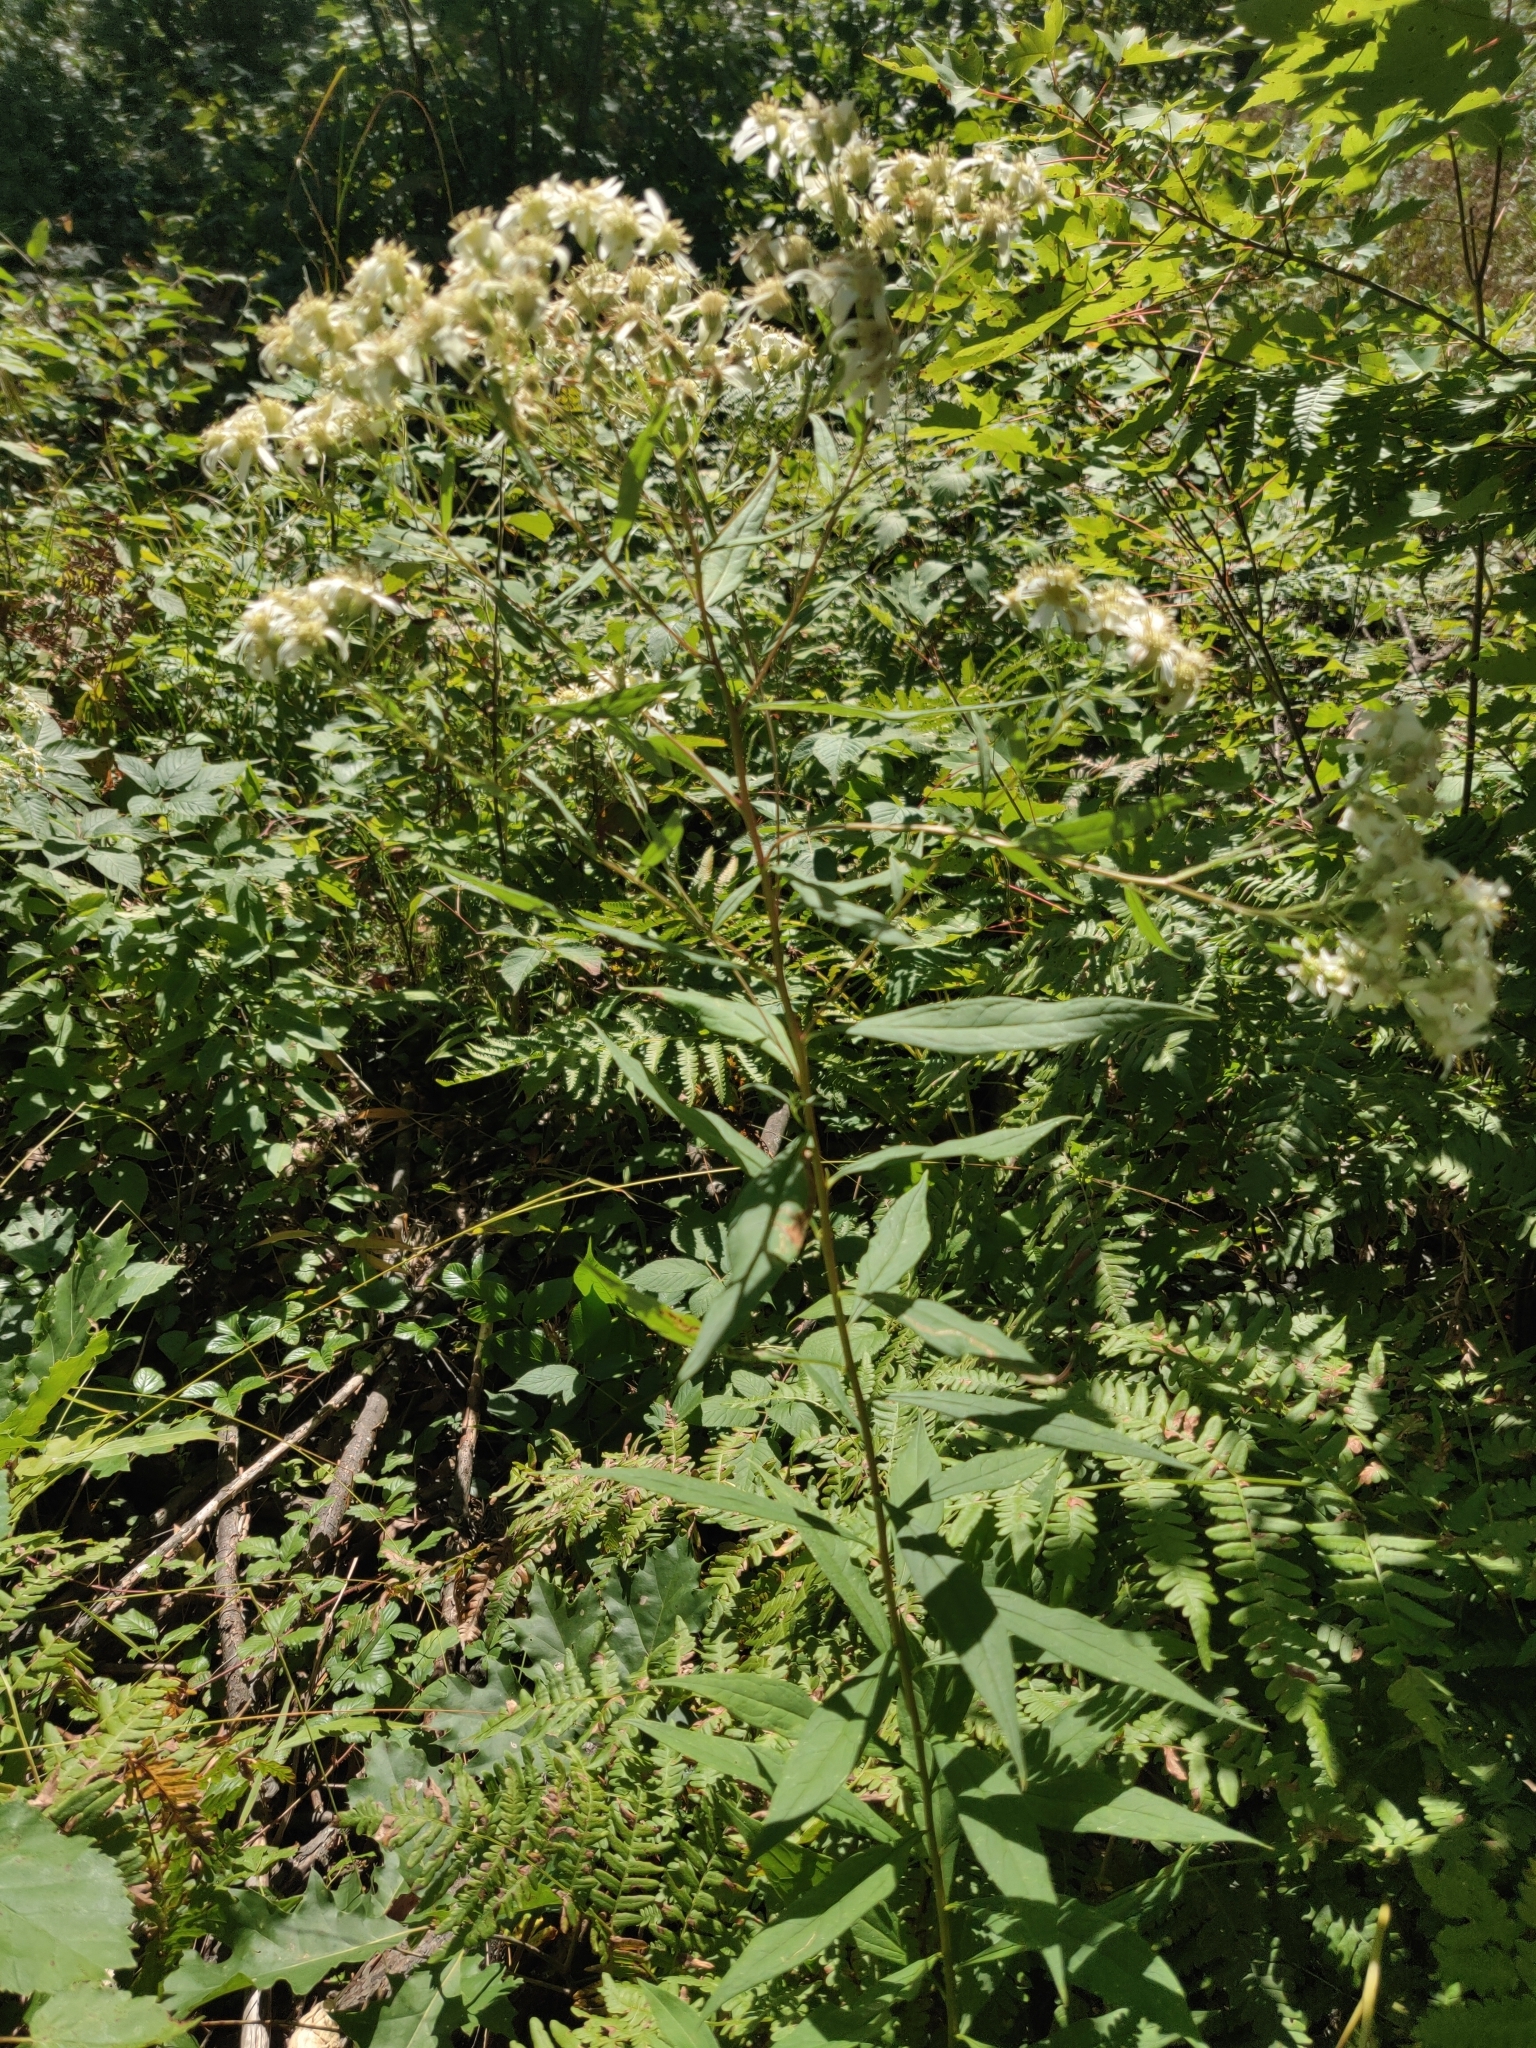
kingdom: Plantae
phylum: Tracheophyta
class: Magnoliopsida
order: Asterales
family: Asteraceae
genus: Doellingeria
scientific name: Doellingeria umbellata
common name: Flat-top white aster
